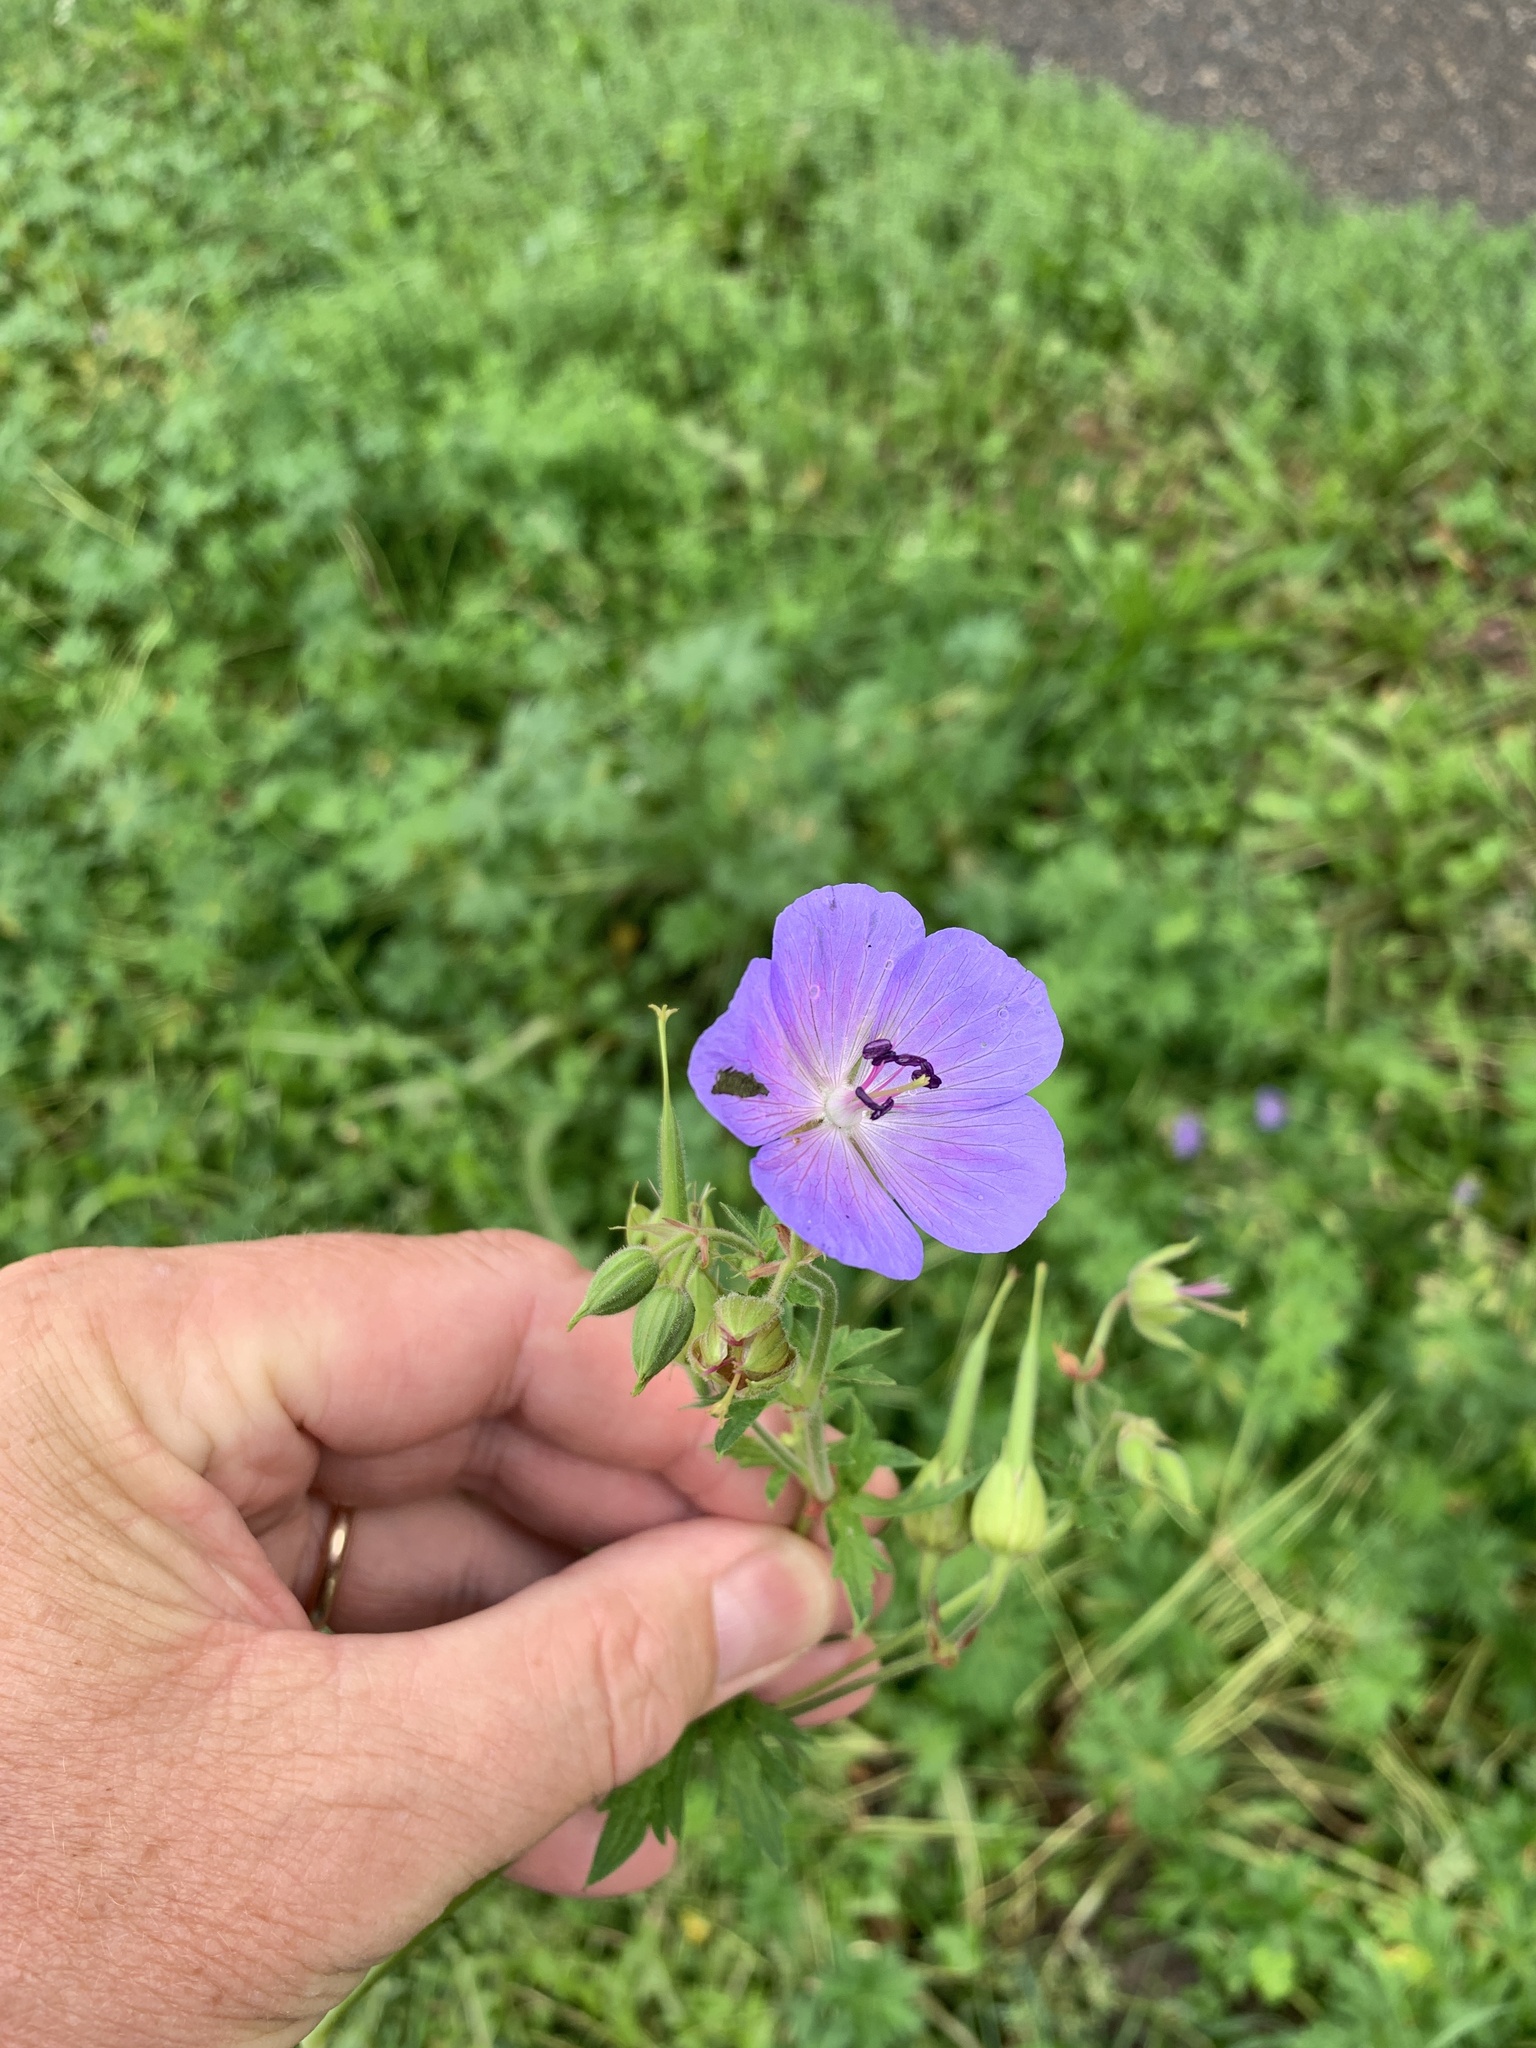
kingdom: Plantae
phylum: Tracheophyta
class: Magnoliopsida
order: Geraniales
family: Geraniaceae
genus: Geranium
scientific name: Geranium pratense
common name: Meadow crane's-bill
